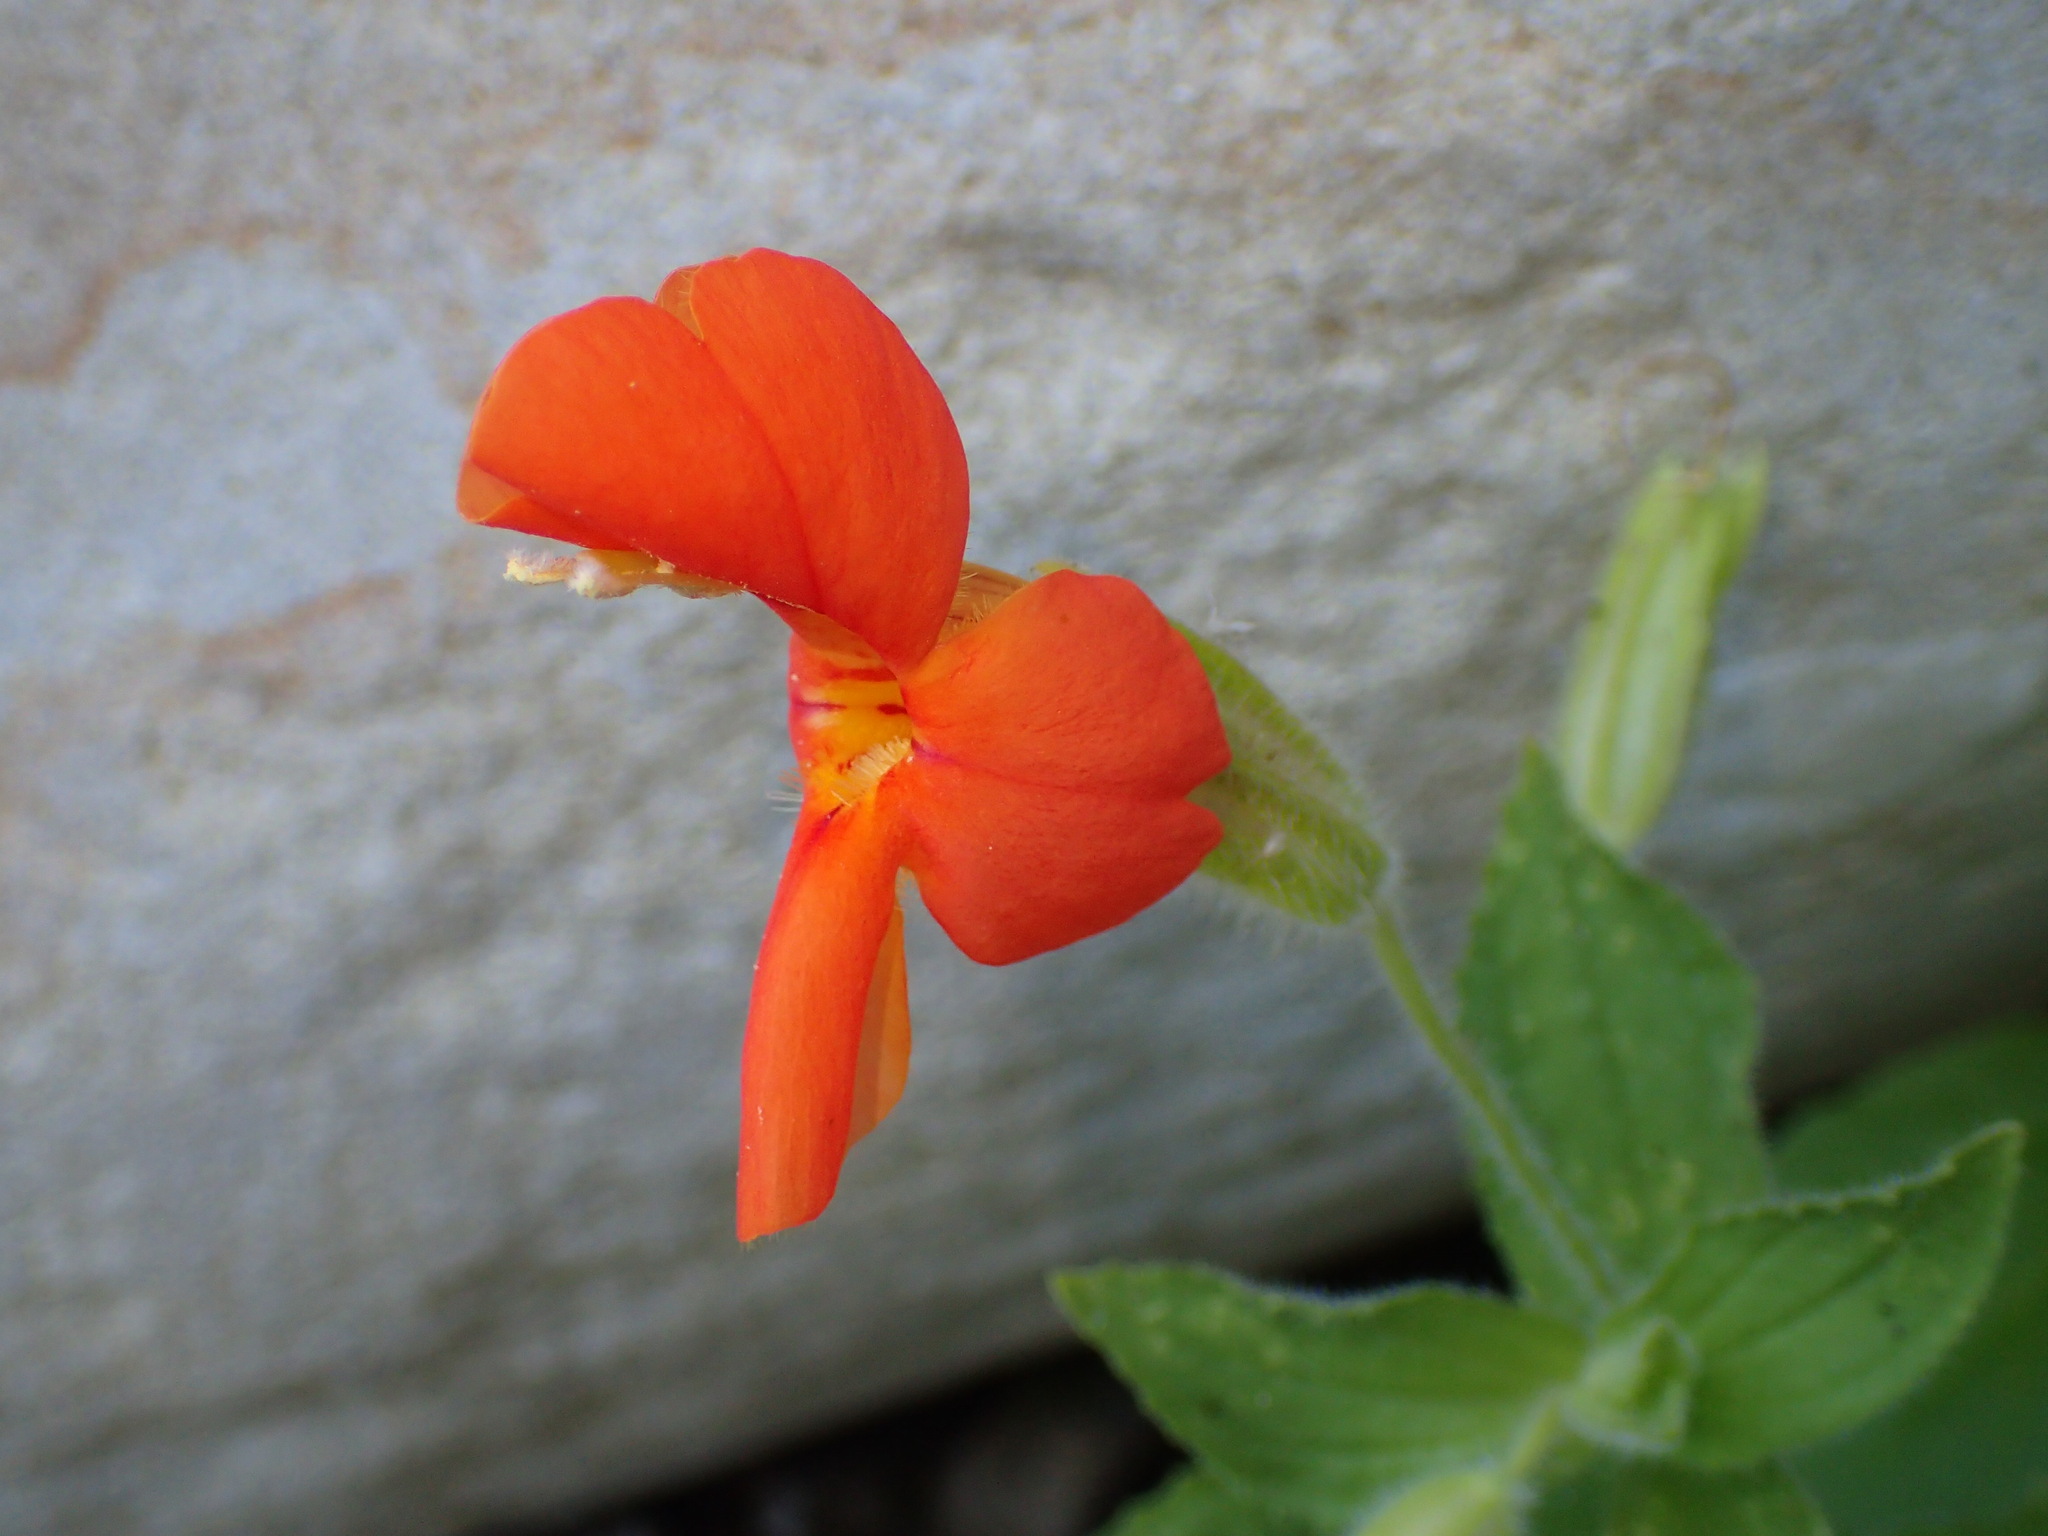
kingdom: Plantae
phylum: Tracheophyta
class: Magnoliopsida
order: Lamiales
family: Phrymaceae
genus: Erythranthe
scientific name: Erythranthe cardinalis
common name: Scarlet monkey-flower
